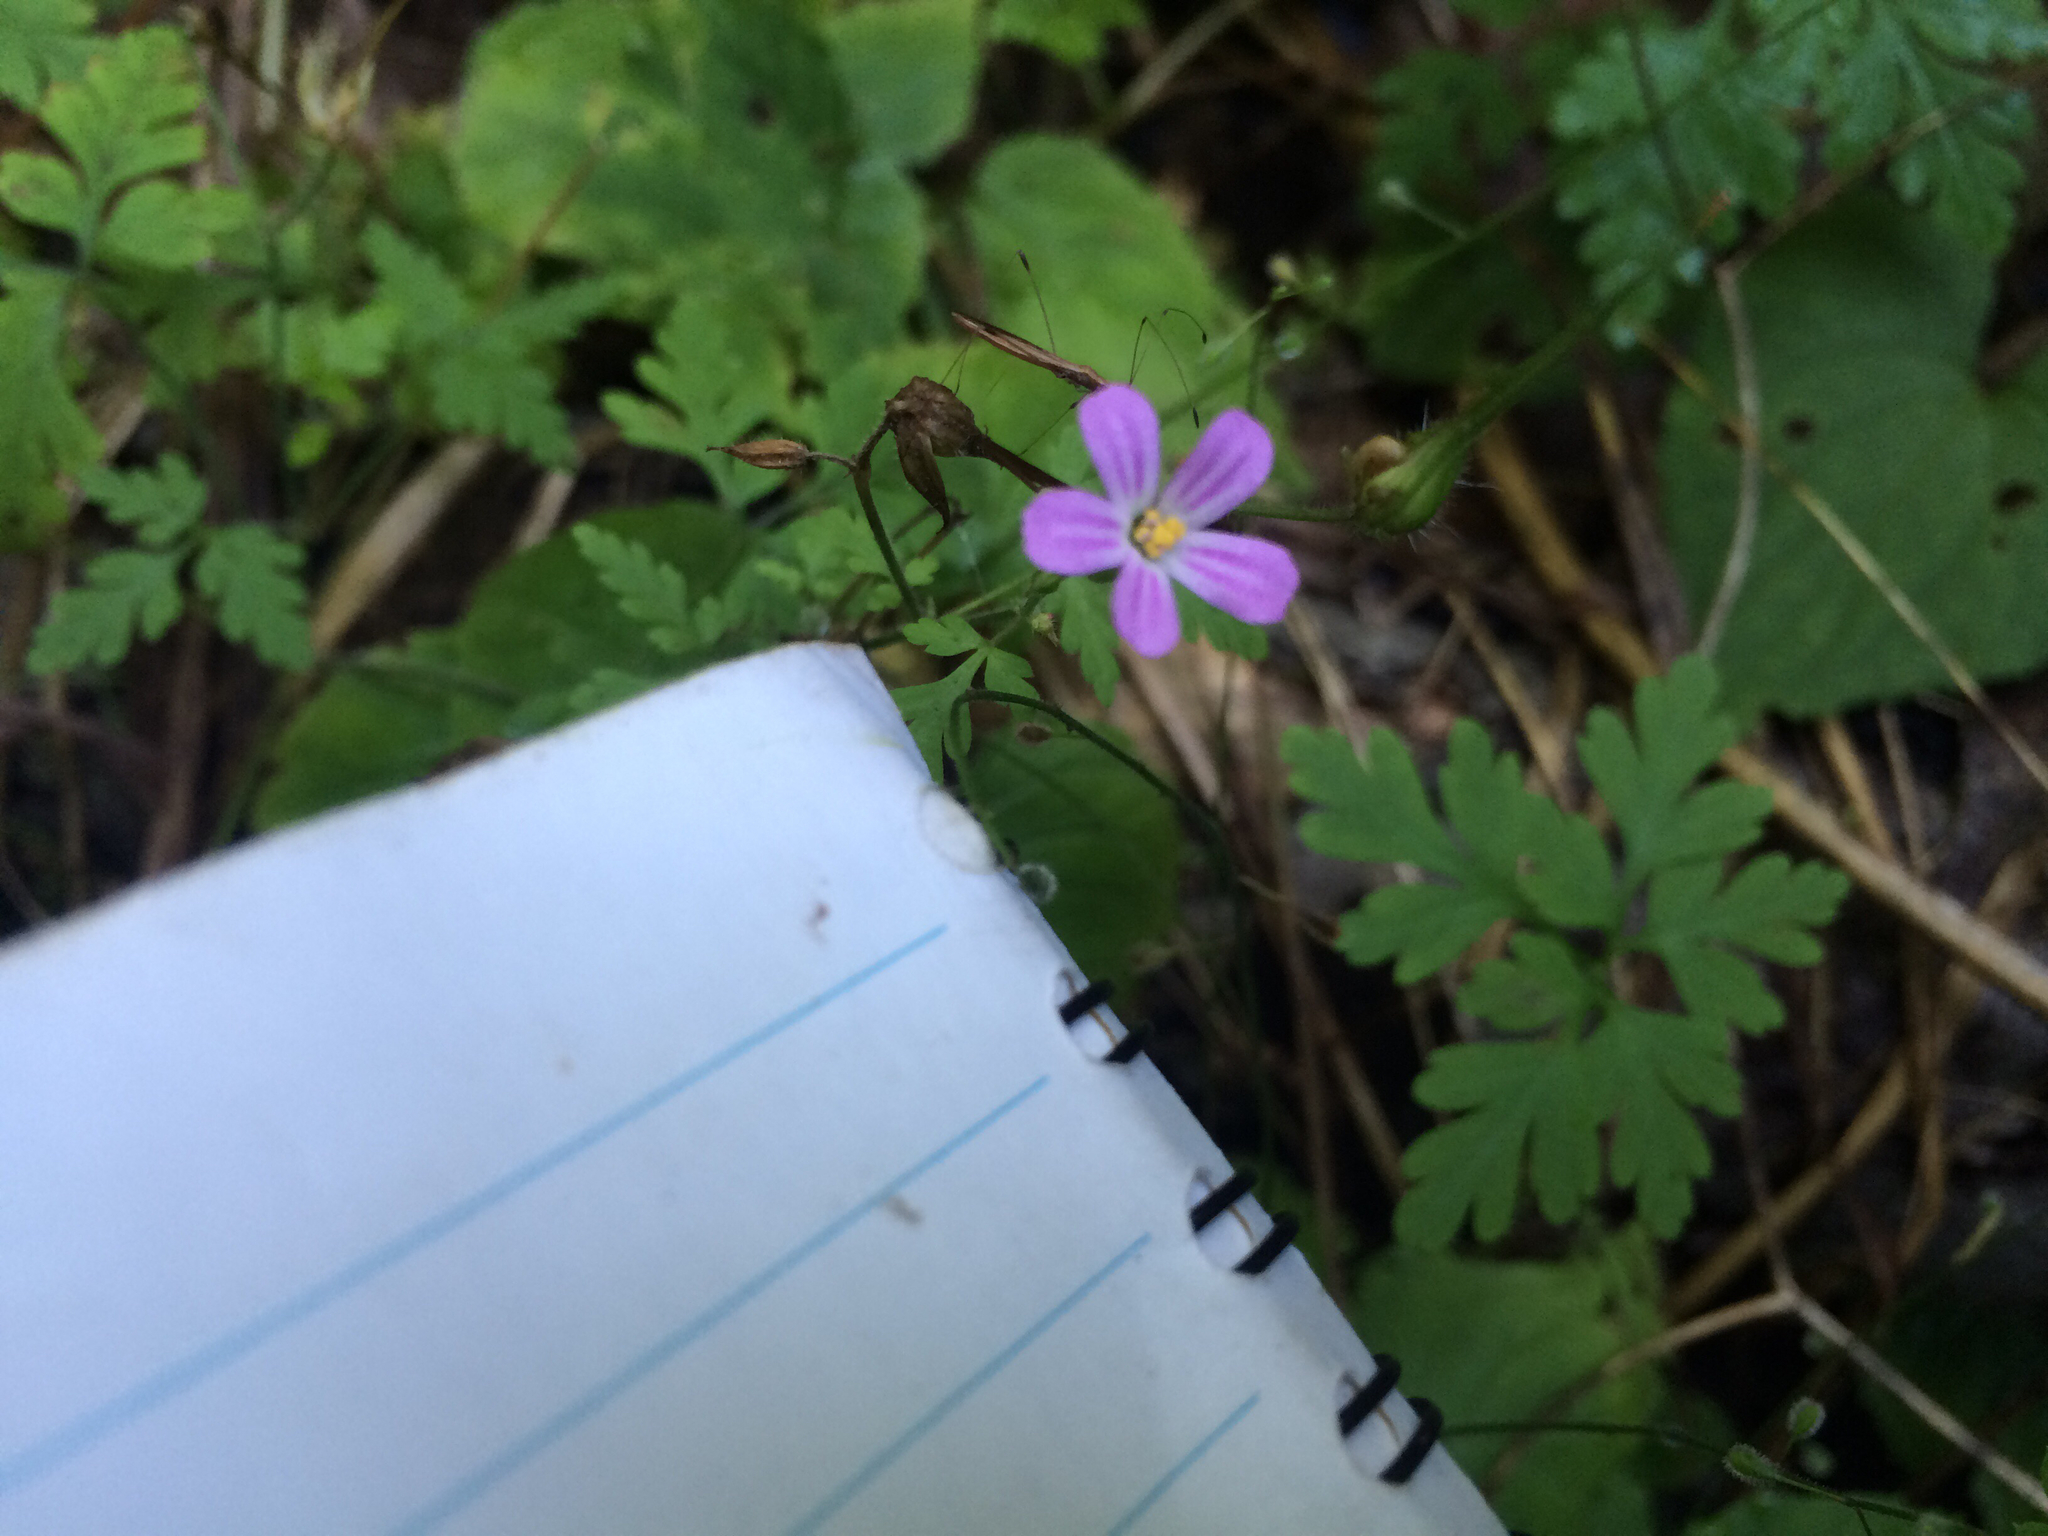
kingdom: Plantae
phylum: Tracheophyta
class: Magnoliopsida
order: Geraniales
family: Geraniaceae
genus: Geranium
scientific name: Geranium robertianum
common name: Herb-robert
